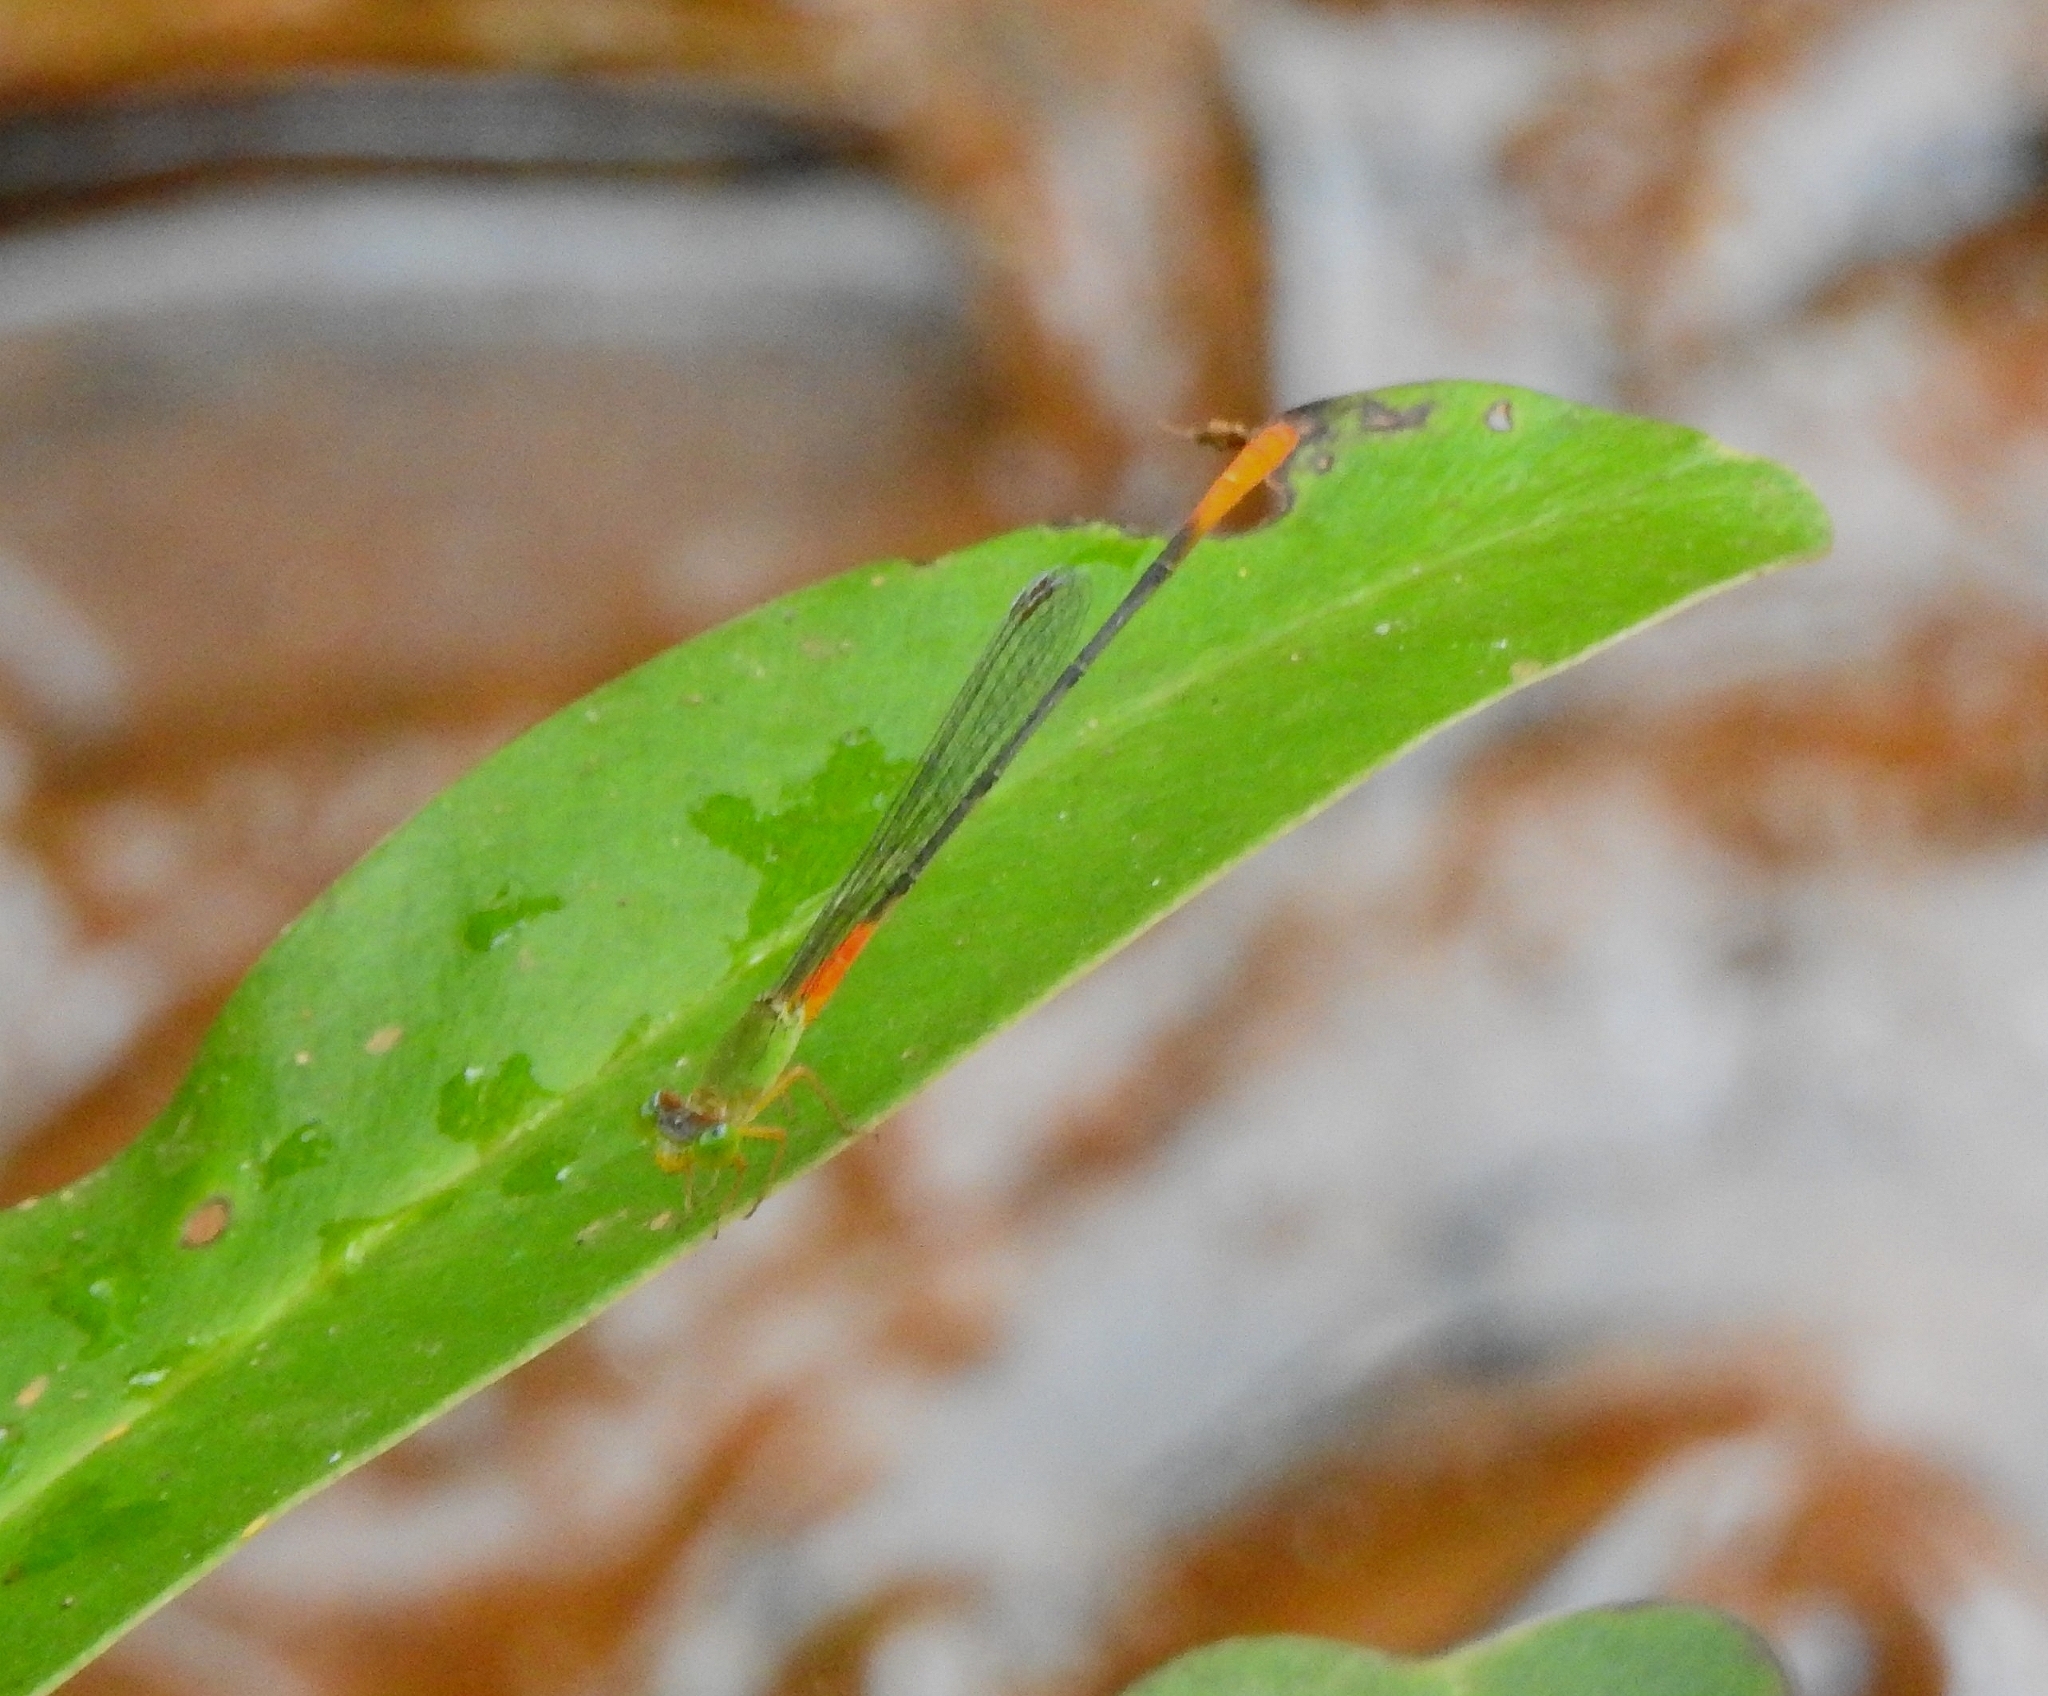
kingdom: Animalia
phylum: Arthropoda
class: Insecta
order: Odonata
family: Coenagrionidae
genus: Ceriagrion
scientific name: Ceriagrion cerinorubellum
